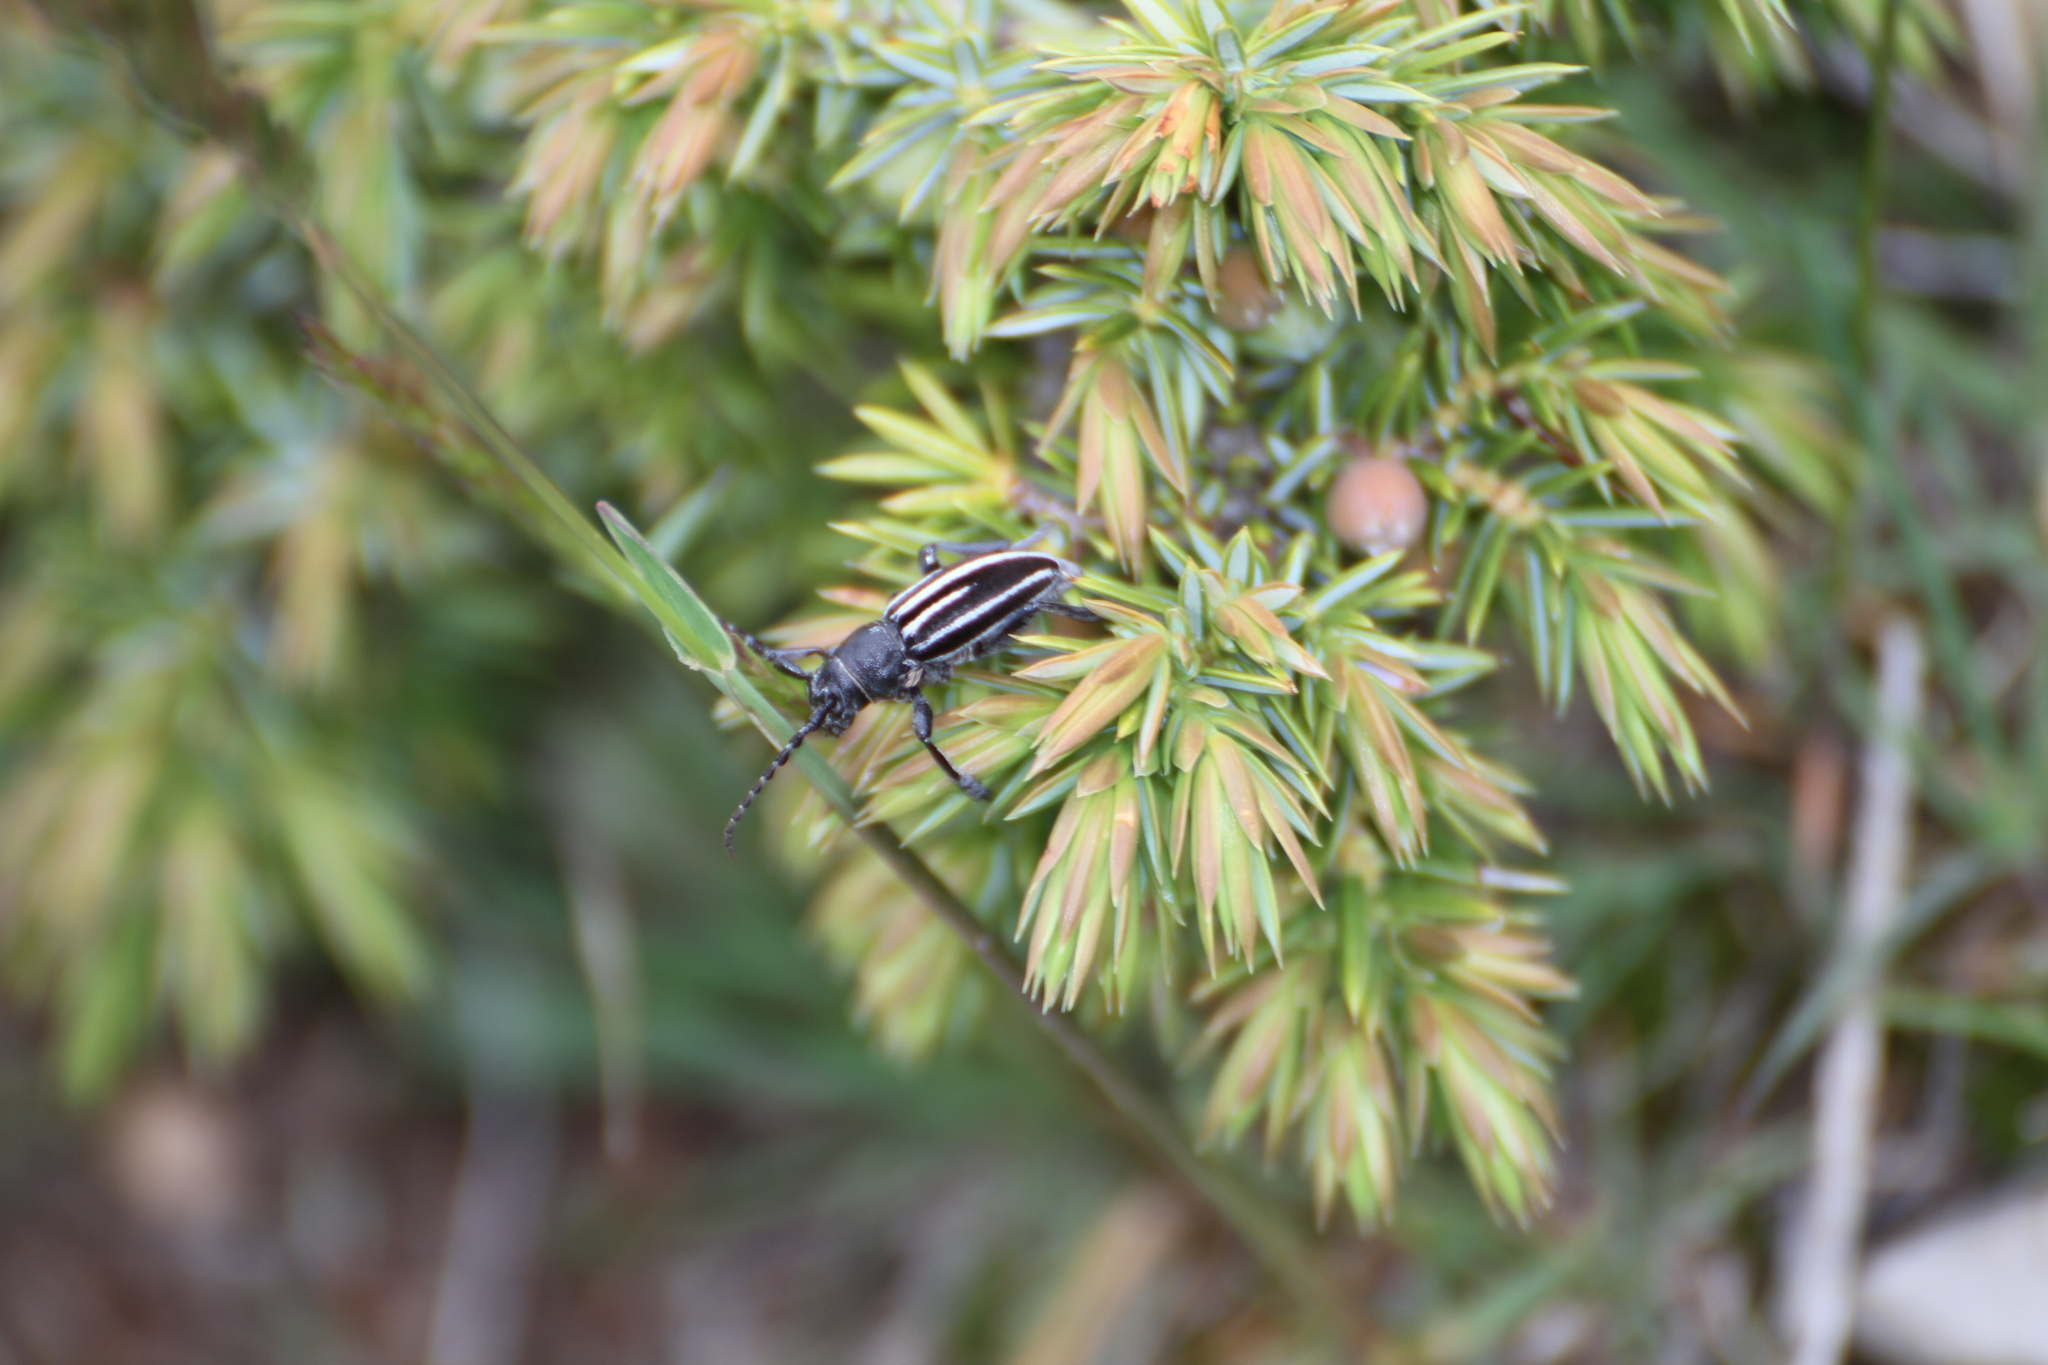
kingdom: Animalia
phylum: Arthropoda
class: Insecta
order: Coleoptera
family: Cerambycidae
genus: Iberodorcadion
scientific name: Iberodorcadion fuliginator
